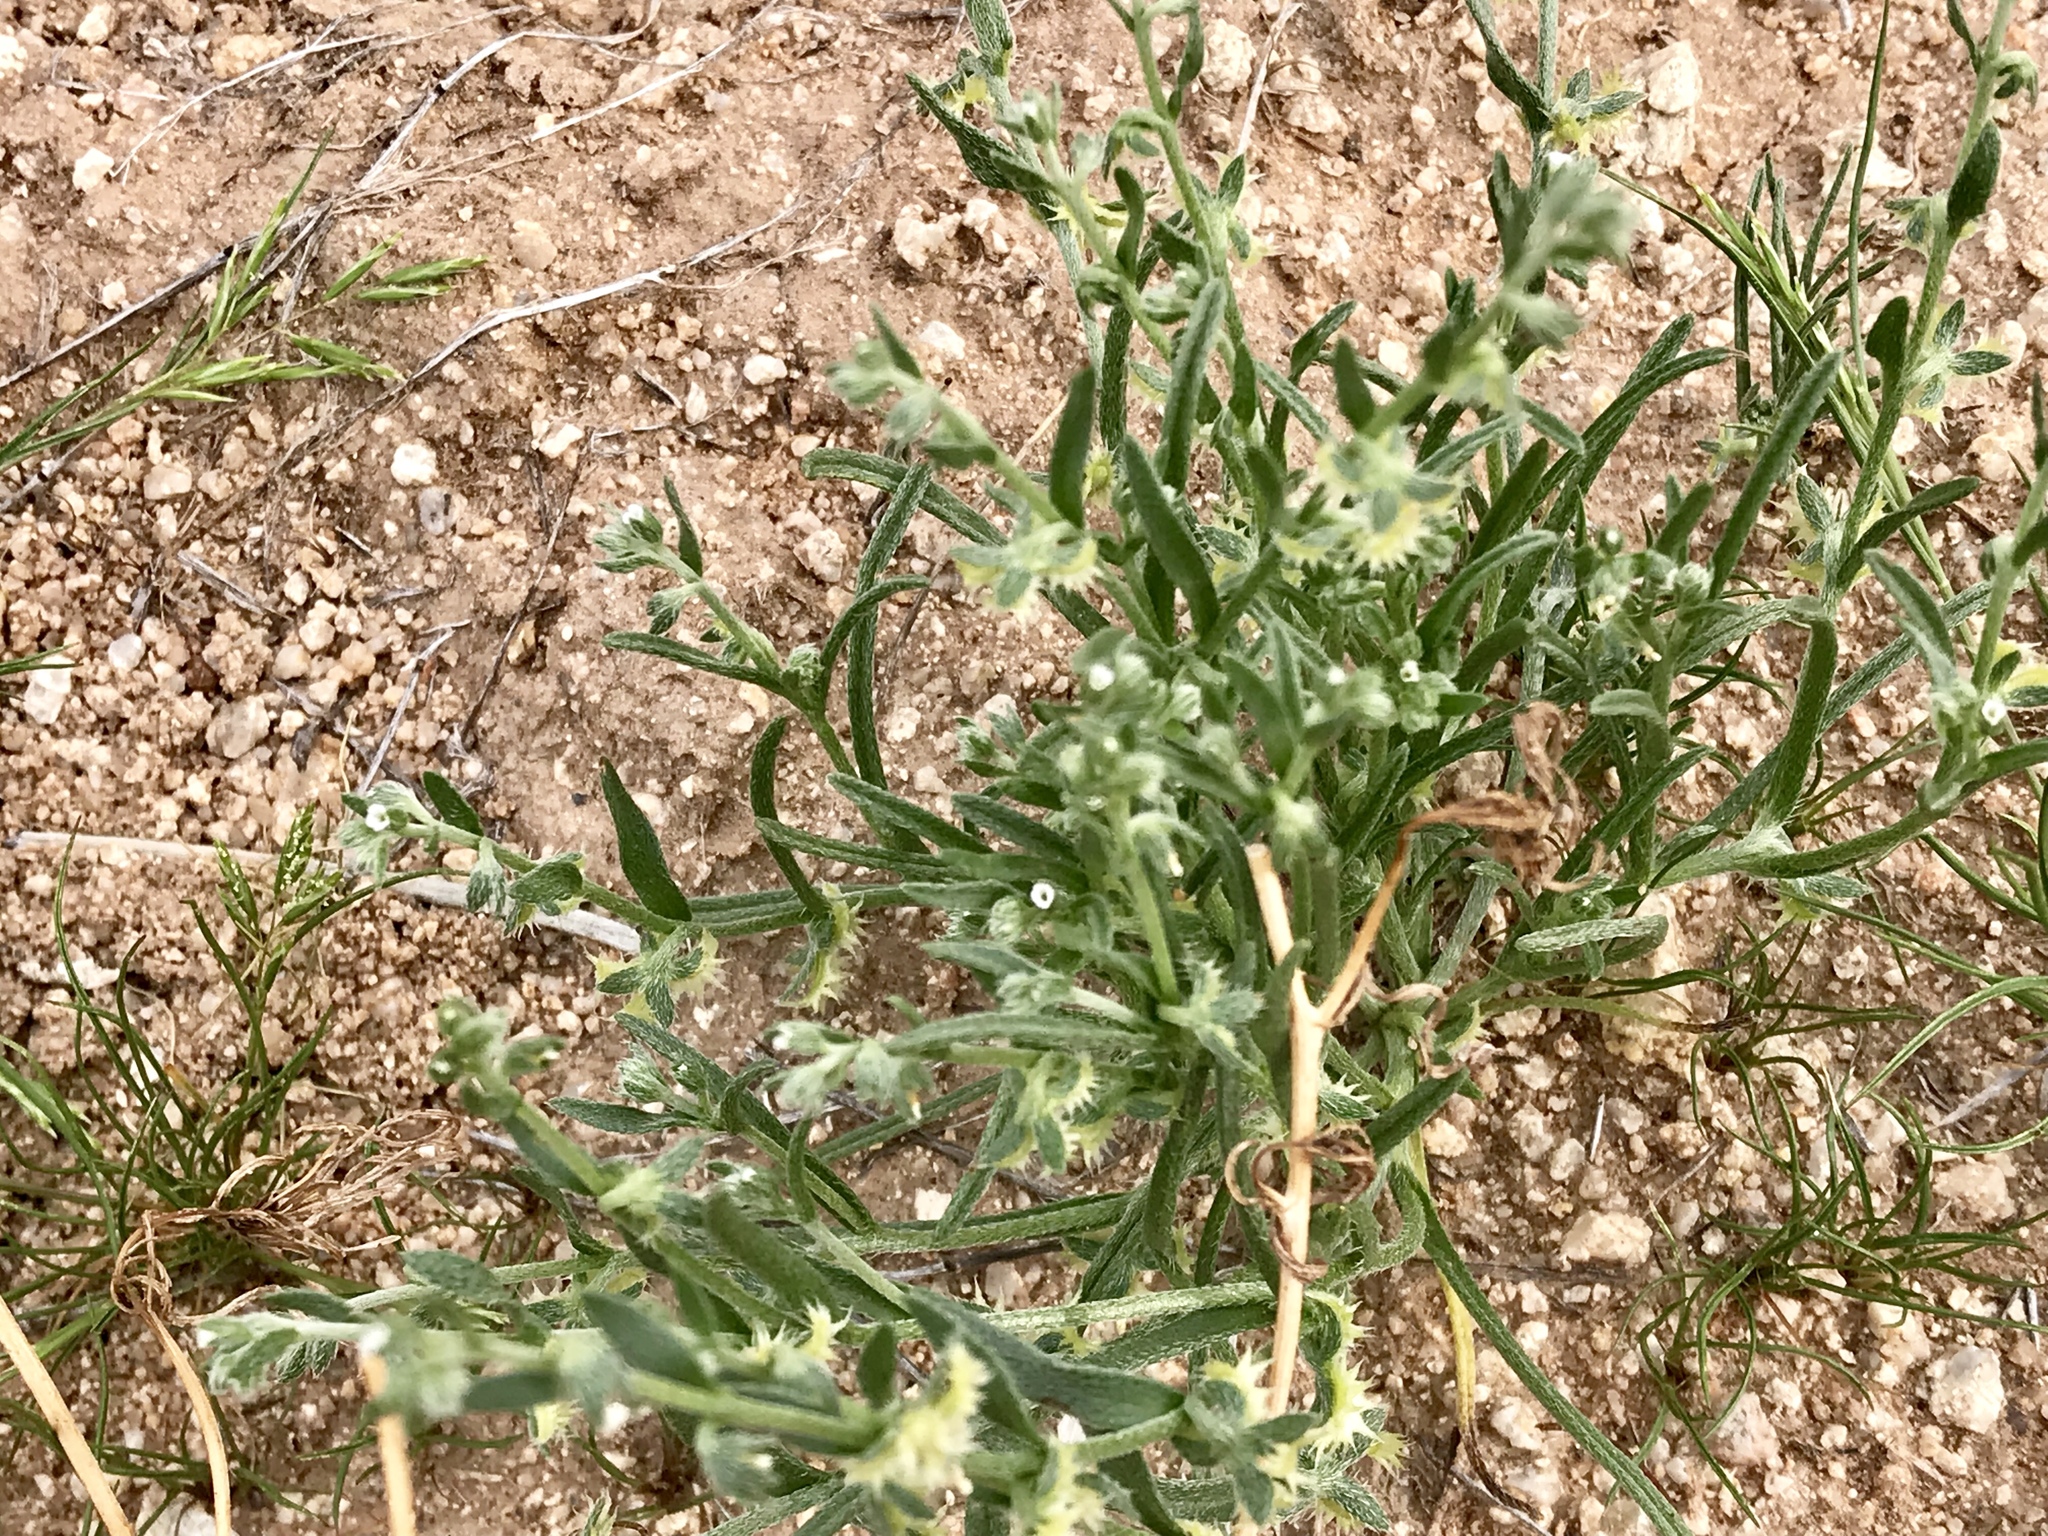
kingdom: Plantae
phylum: Tracheophyta
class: Magnoliopsida
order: Boraginales
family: Boraginaceae
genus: Pectocarya
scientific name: Pectocarya platycarpa
